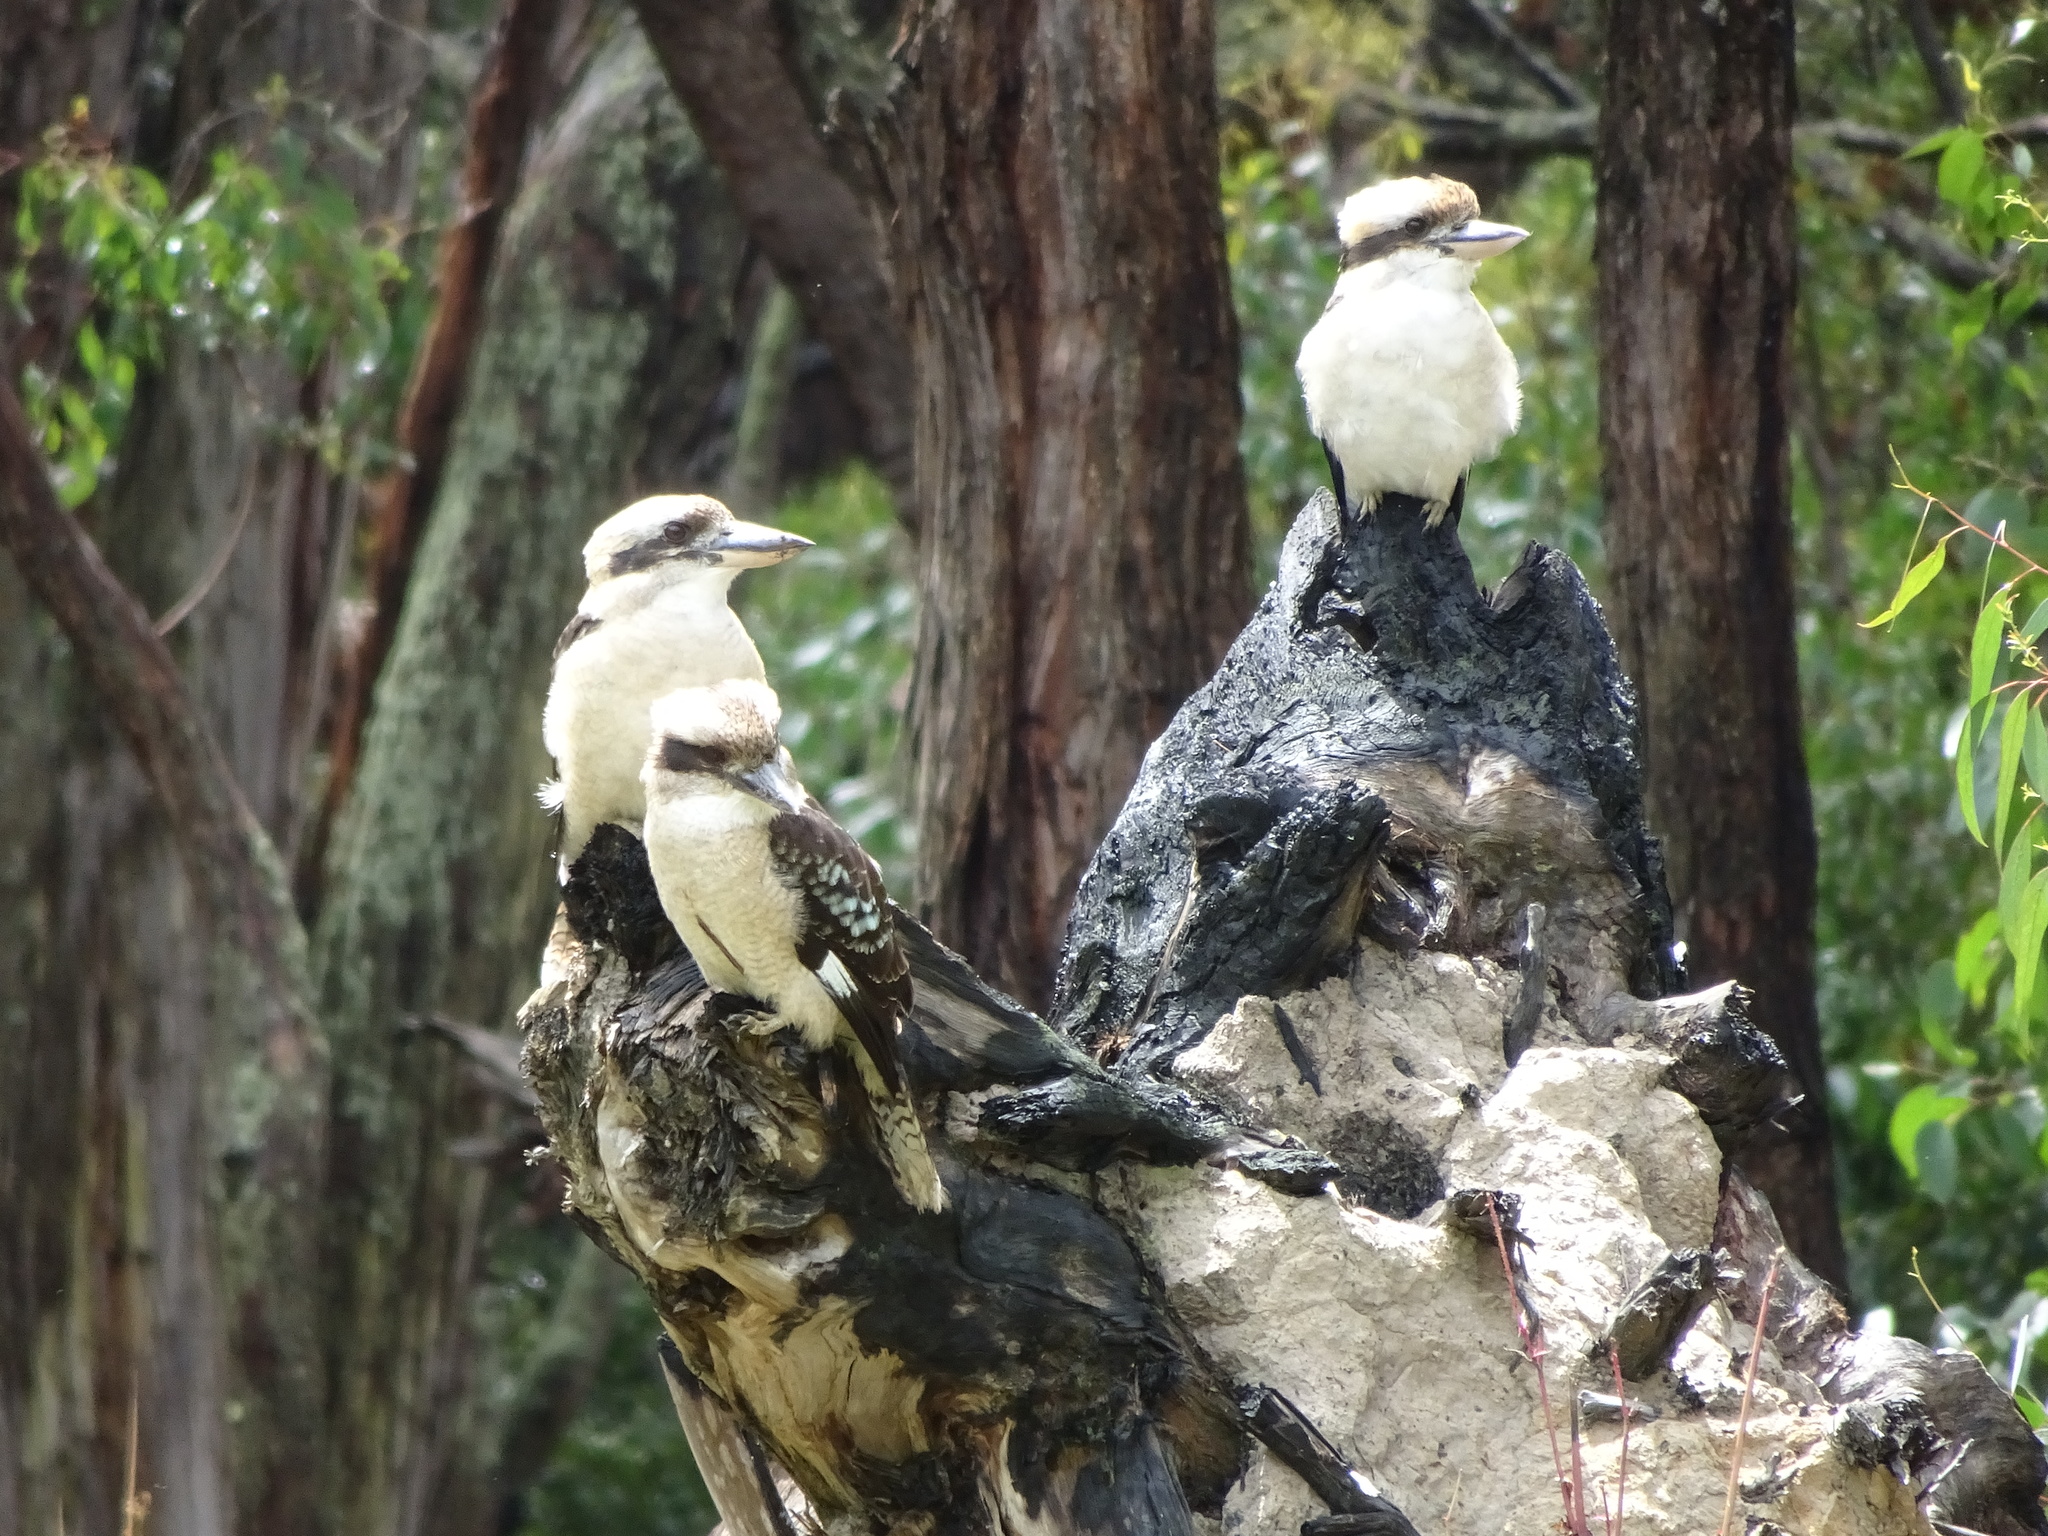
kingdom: Animalia
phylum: Chordata
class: Aves
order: Coraciiformes
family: Alcedinidae
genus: Dacelo
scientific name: Dacelo novaeguineae
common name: Laughing kookaburra
